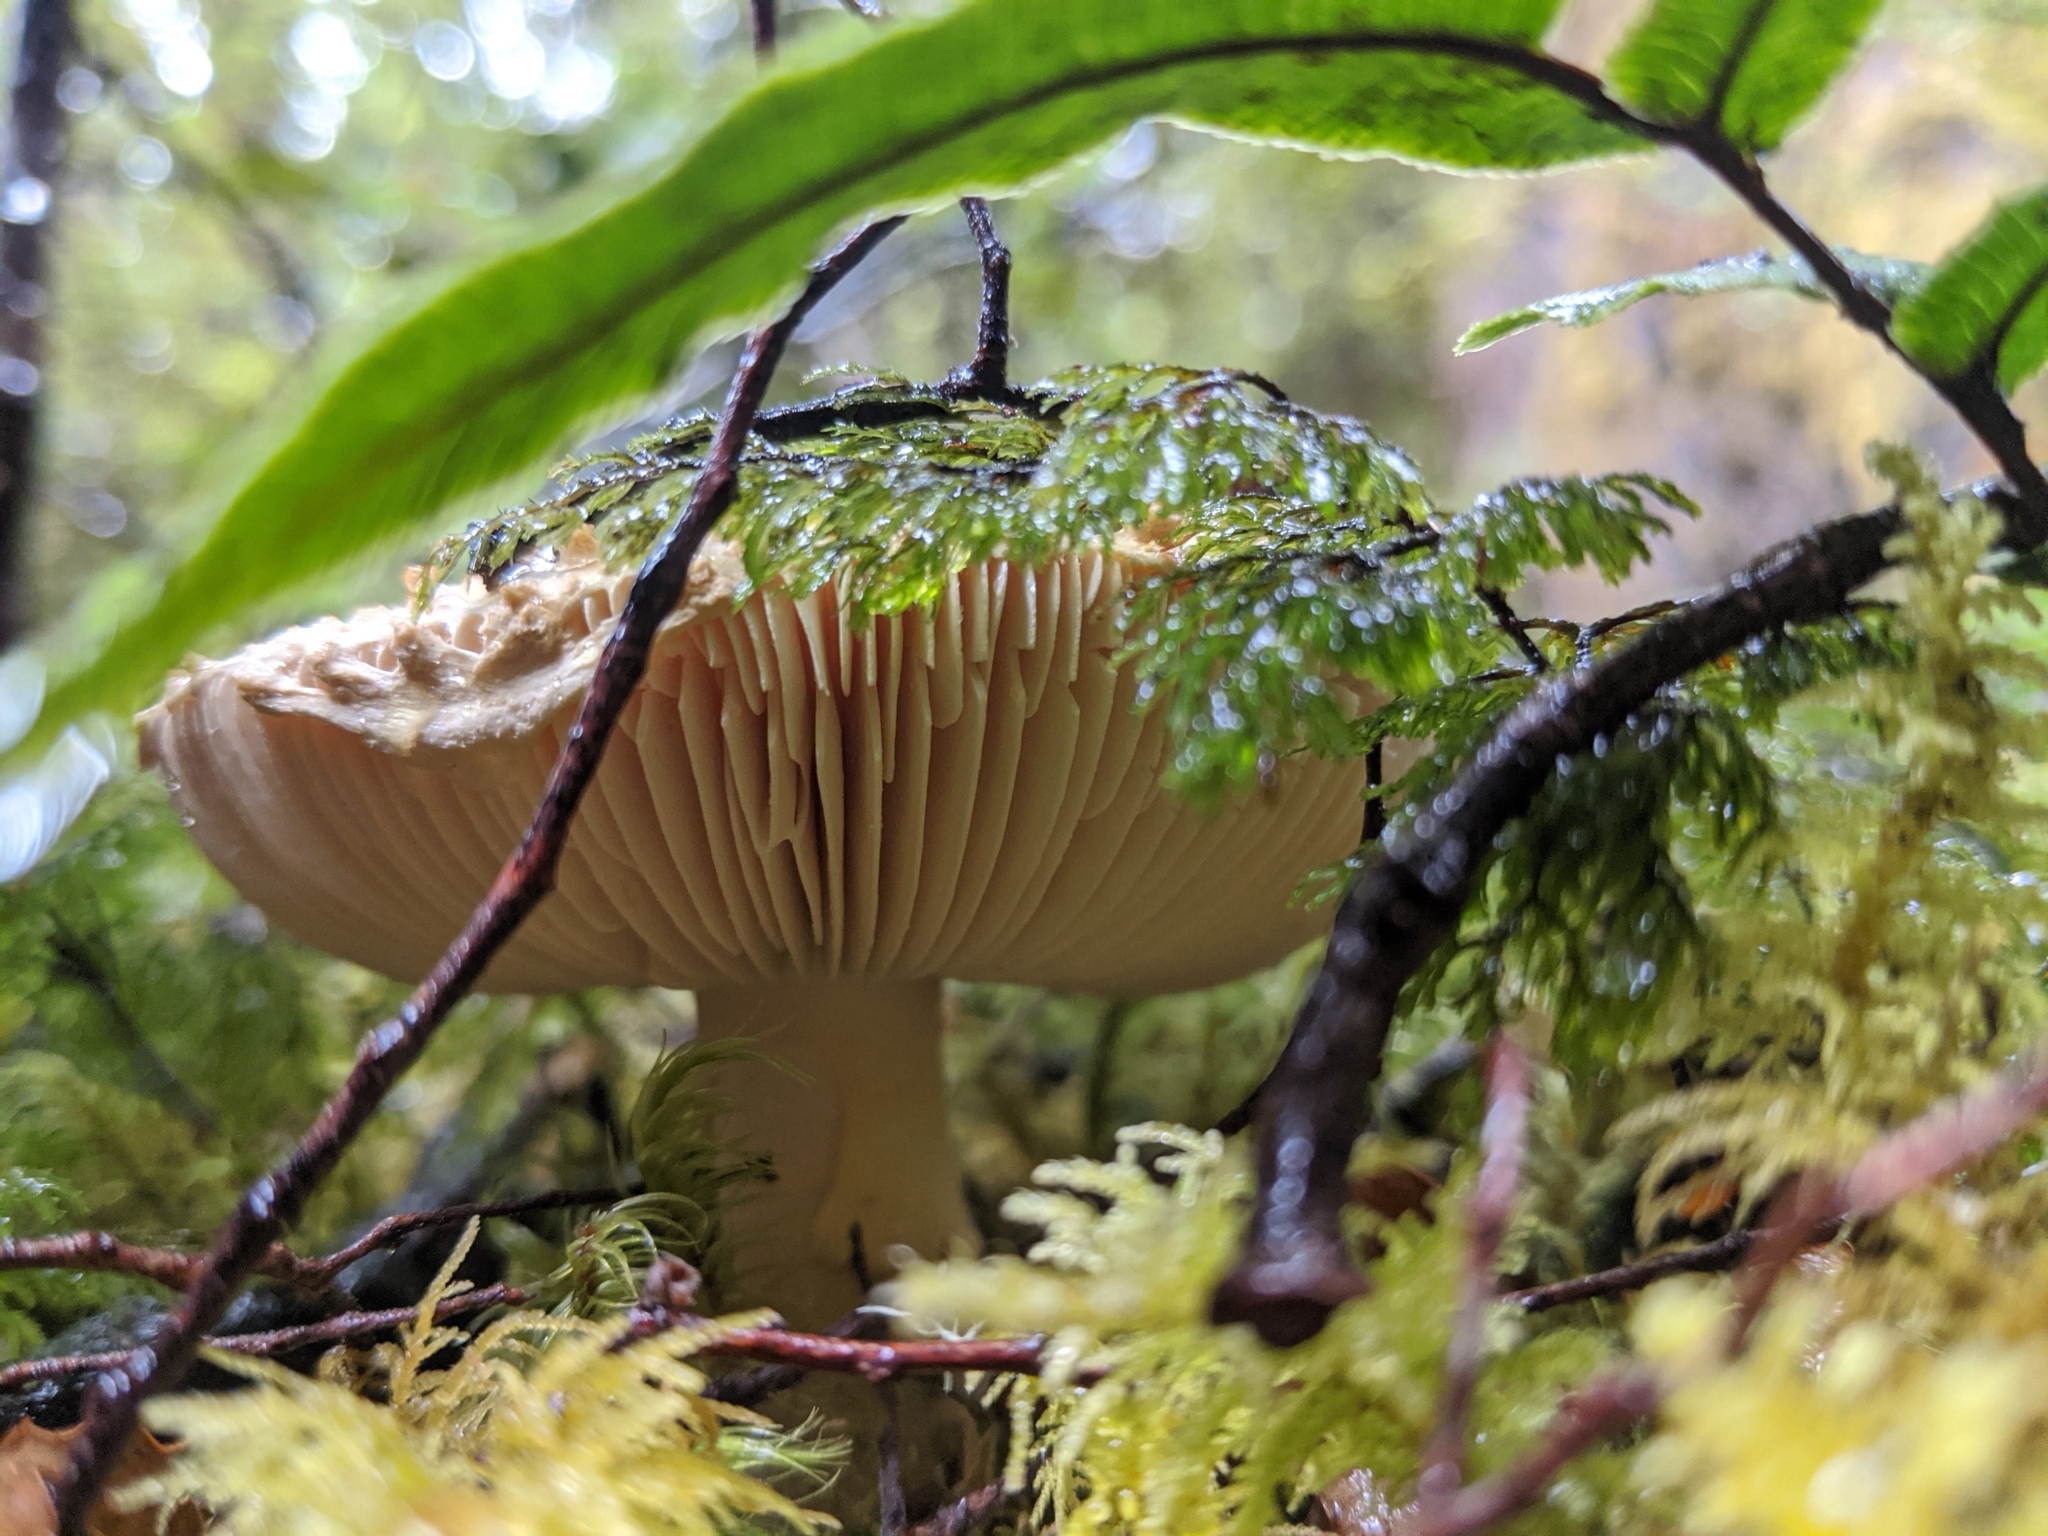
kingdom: Fungi
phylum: Basidiomycota
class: Agaricomycetes
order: Agaricales
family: Amanitaceae
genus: Amanita
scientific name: Amanita pareparina
